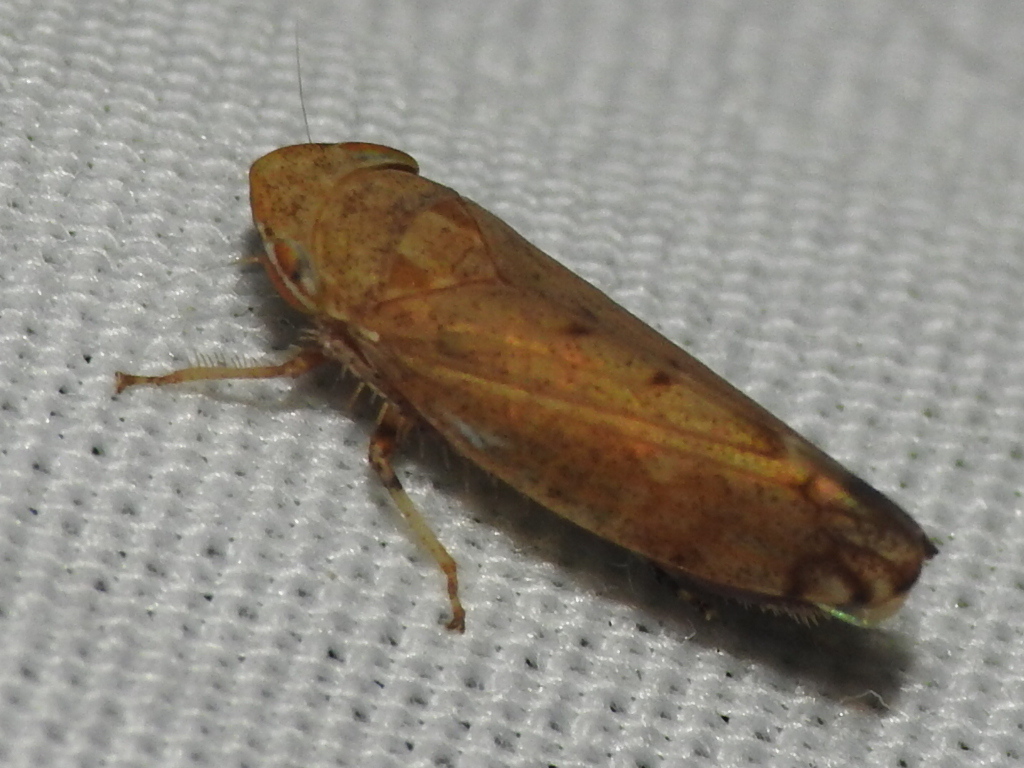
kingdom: Animalia
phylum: Arthropoda
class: Insecta
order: Hemiptera
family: Cicadellidae
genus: Fieberiella
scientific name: Fieberiella florii
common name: Flor’s leafhopper
